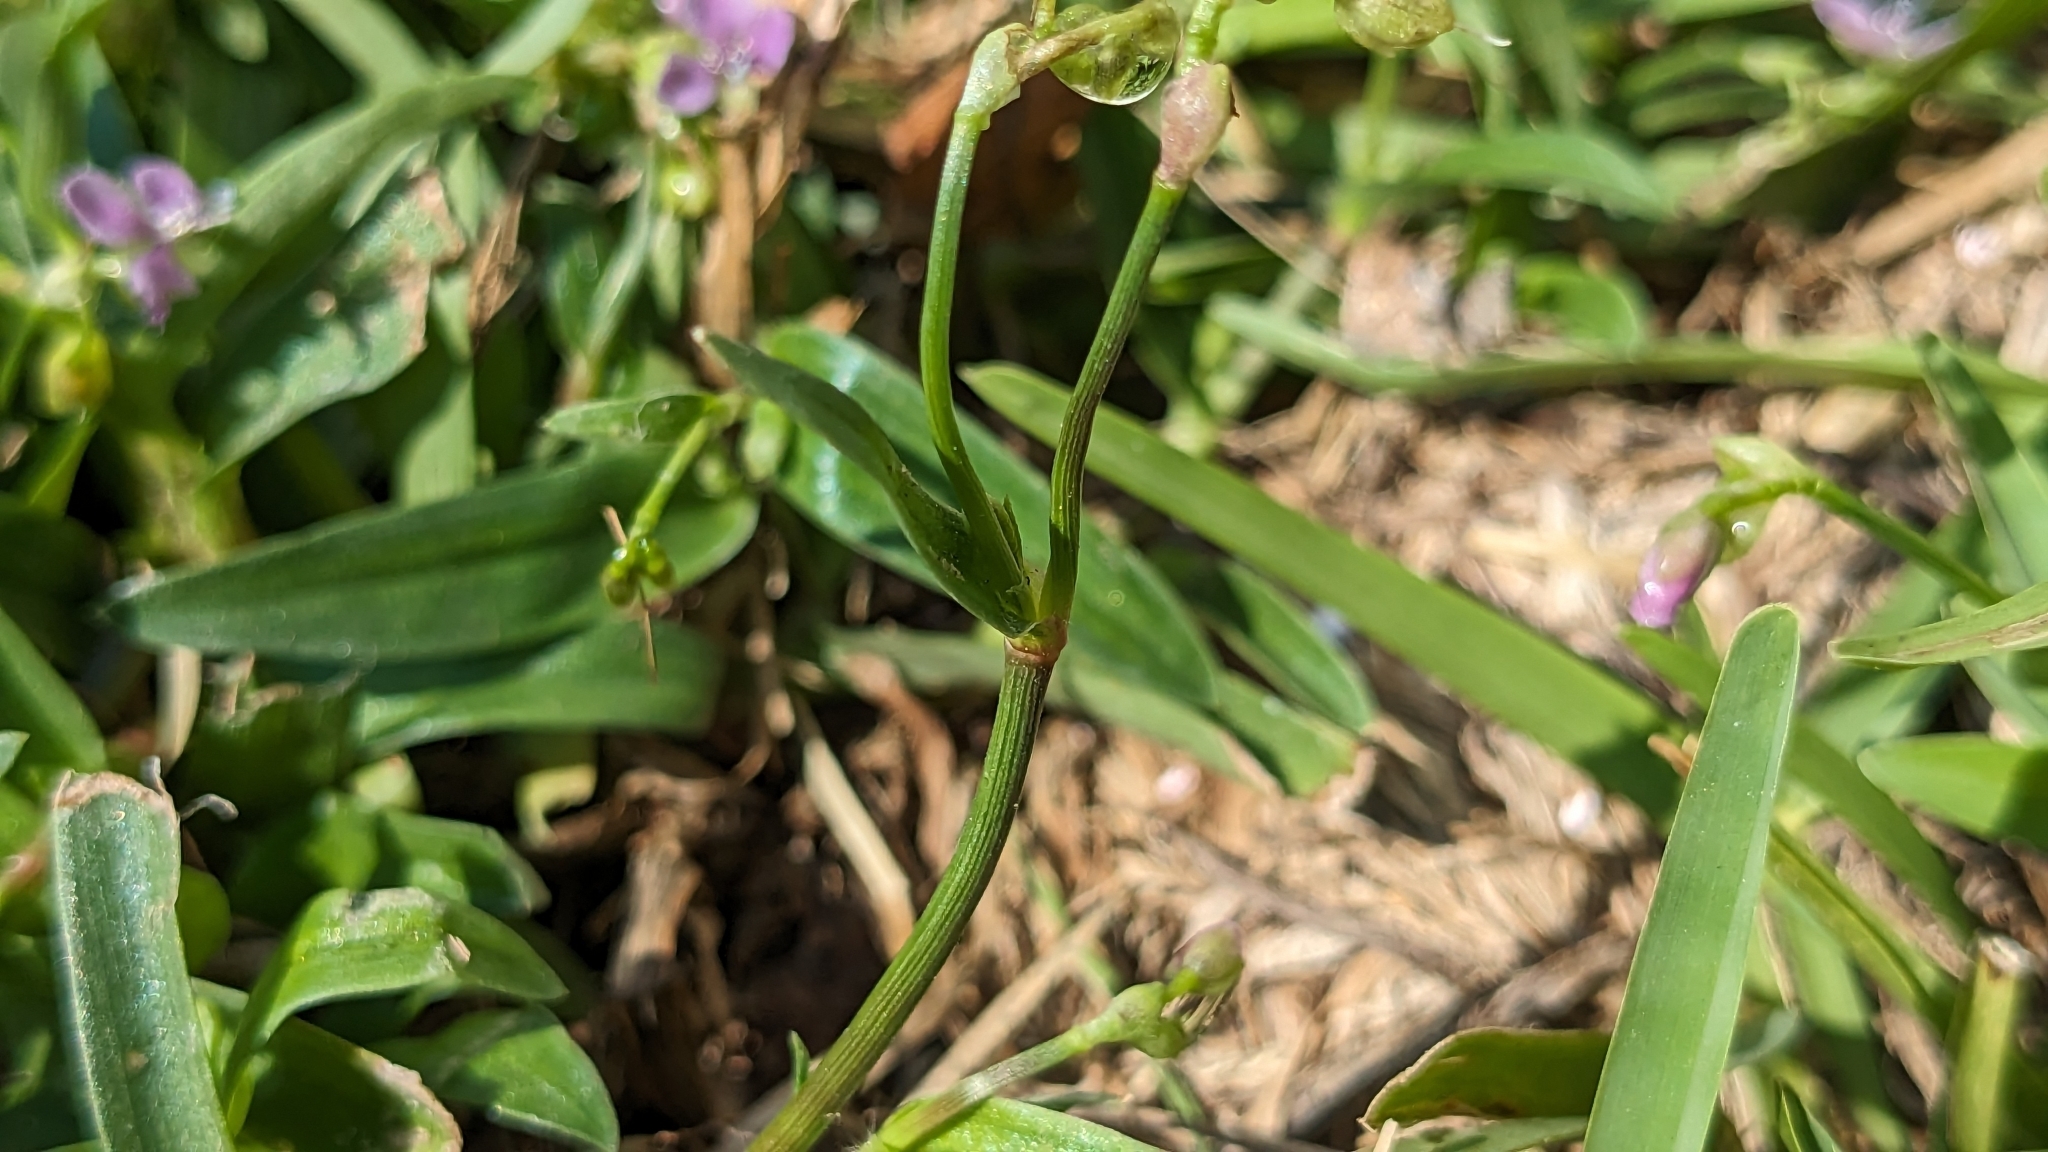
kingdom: Plantae
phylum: Tracheophyta
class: Liliopsida
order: Commelinales
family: Commelinaceae
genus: Murdannia
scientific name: Murdannia nudiflora
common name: Nakedstem dewflower
